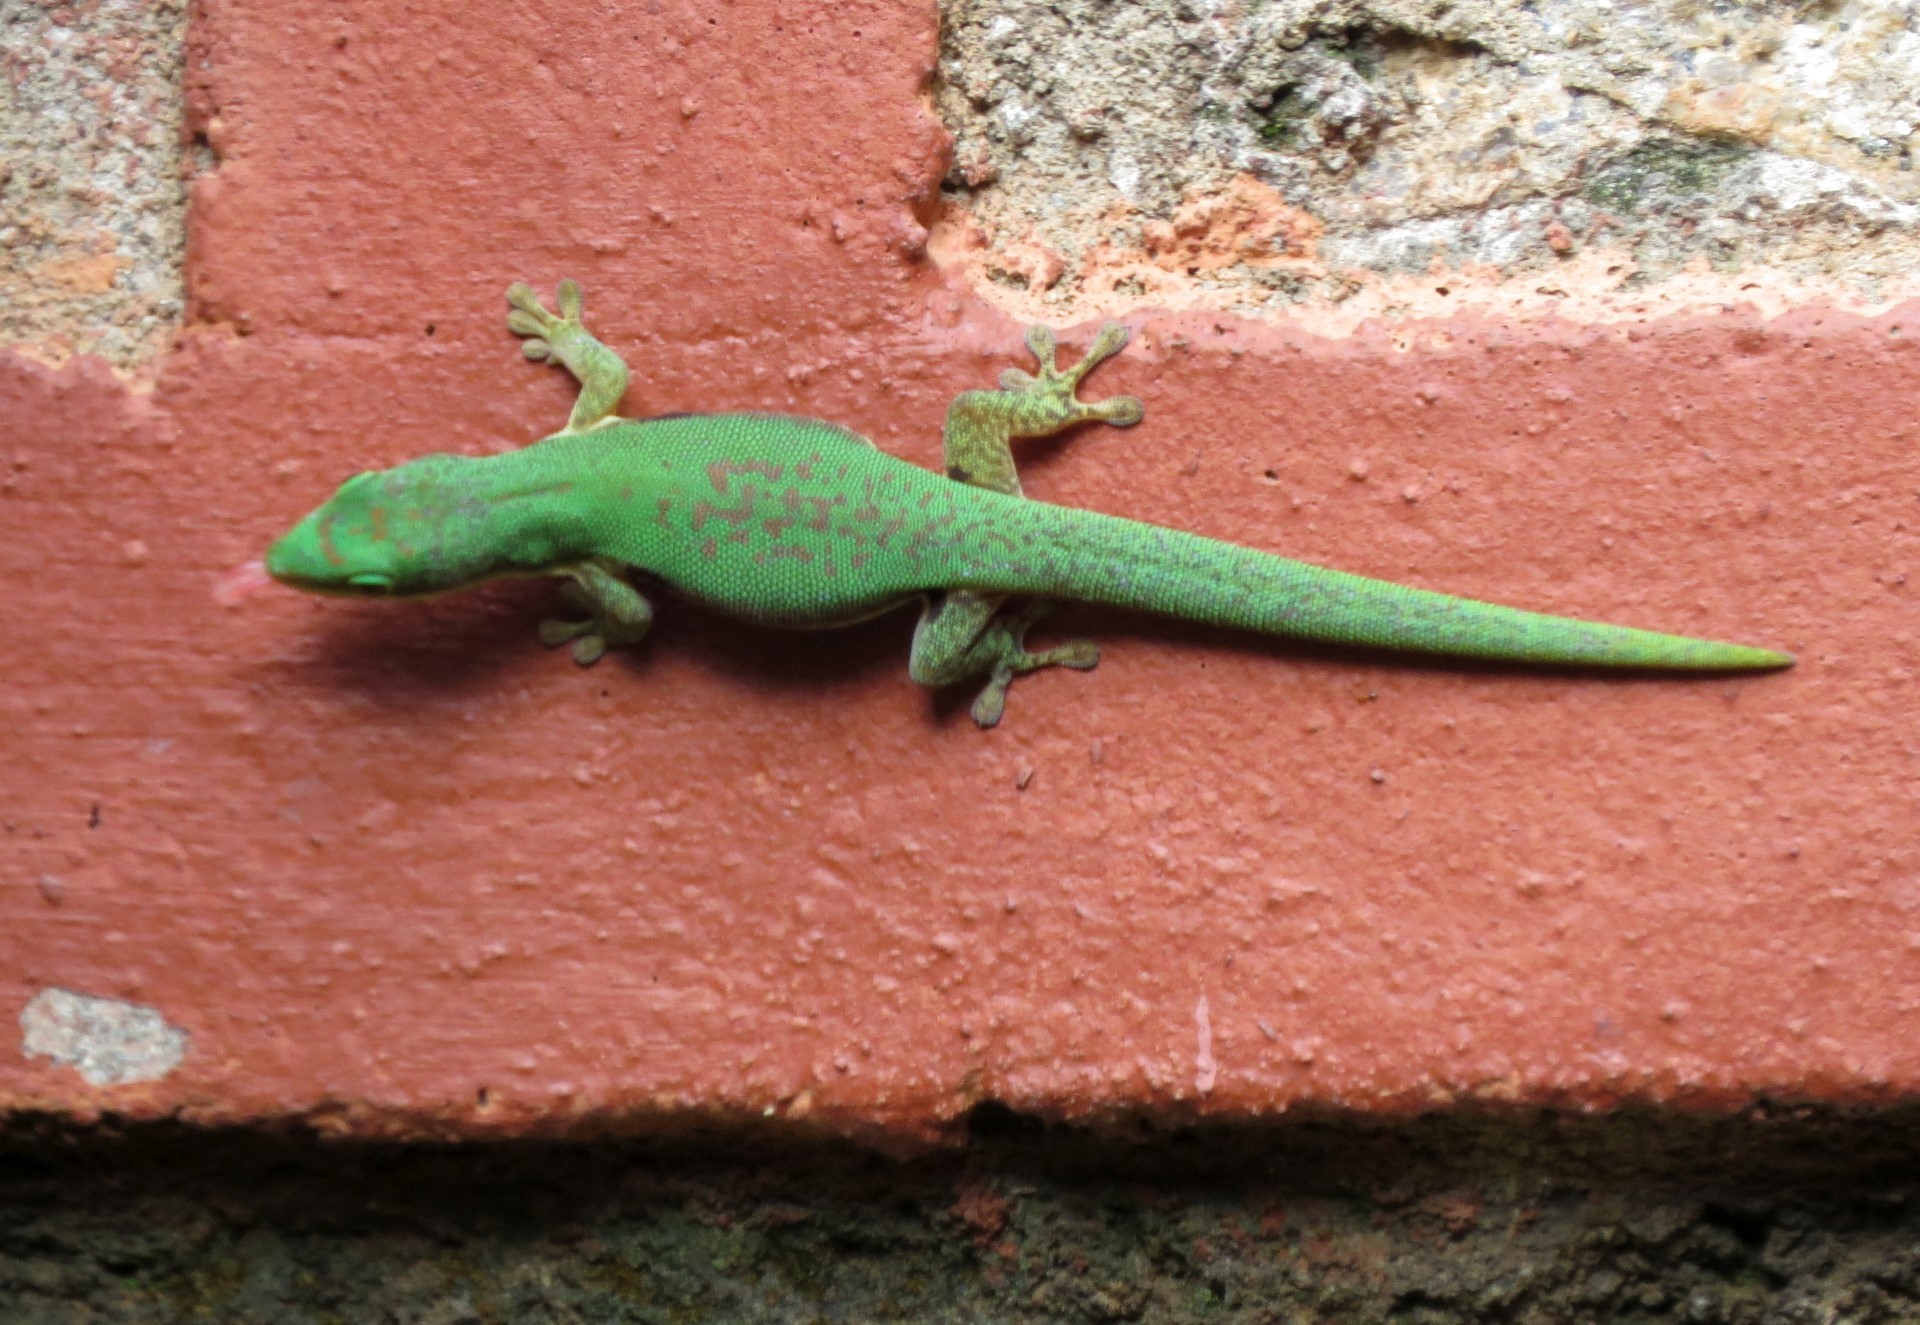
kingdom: Animalia
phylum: Chordata
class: Squamata
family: Gekkonidae
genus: Phelsuma
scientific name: Phelsuma lineata
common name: Lined day gecko
